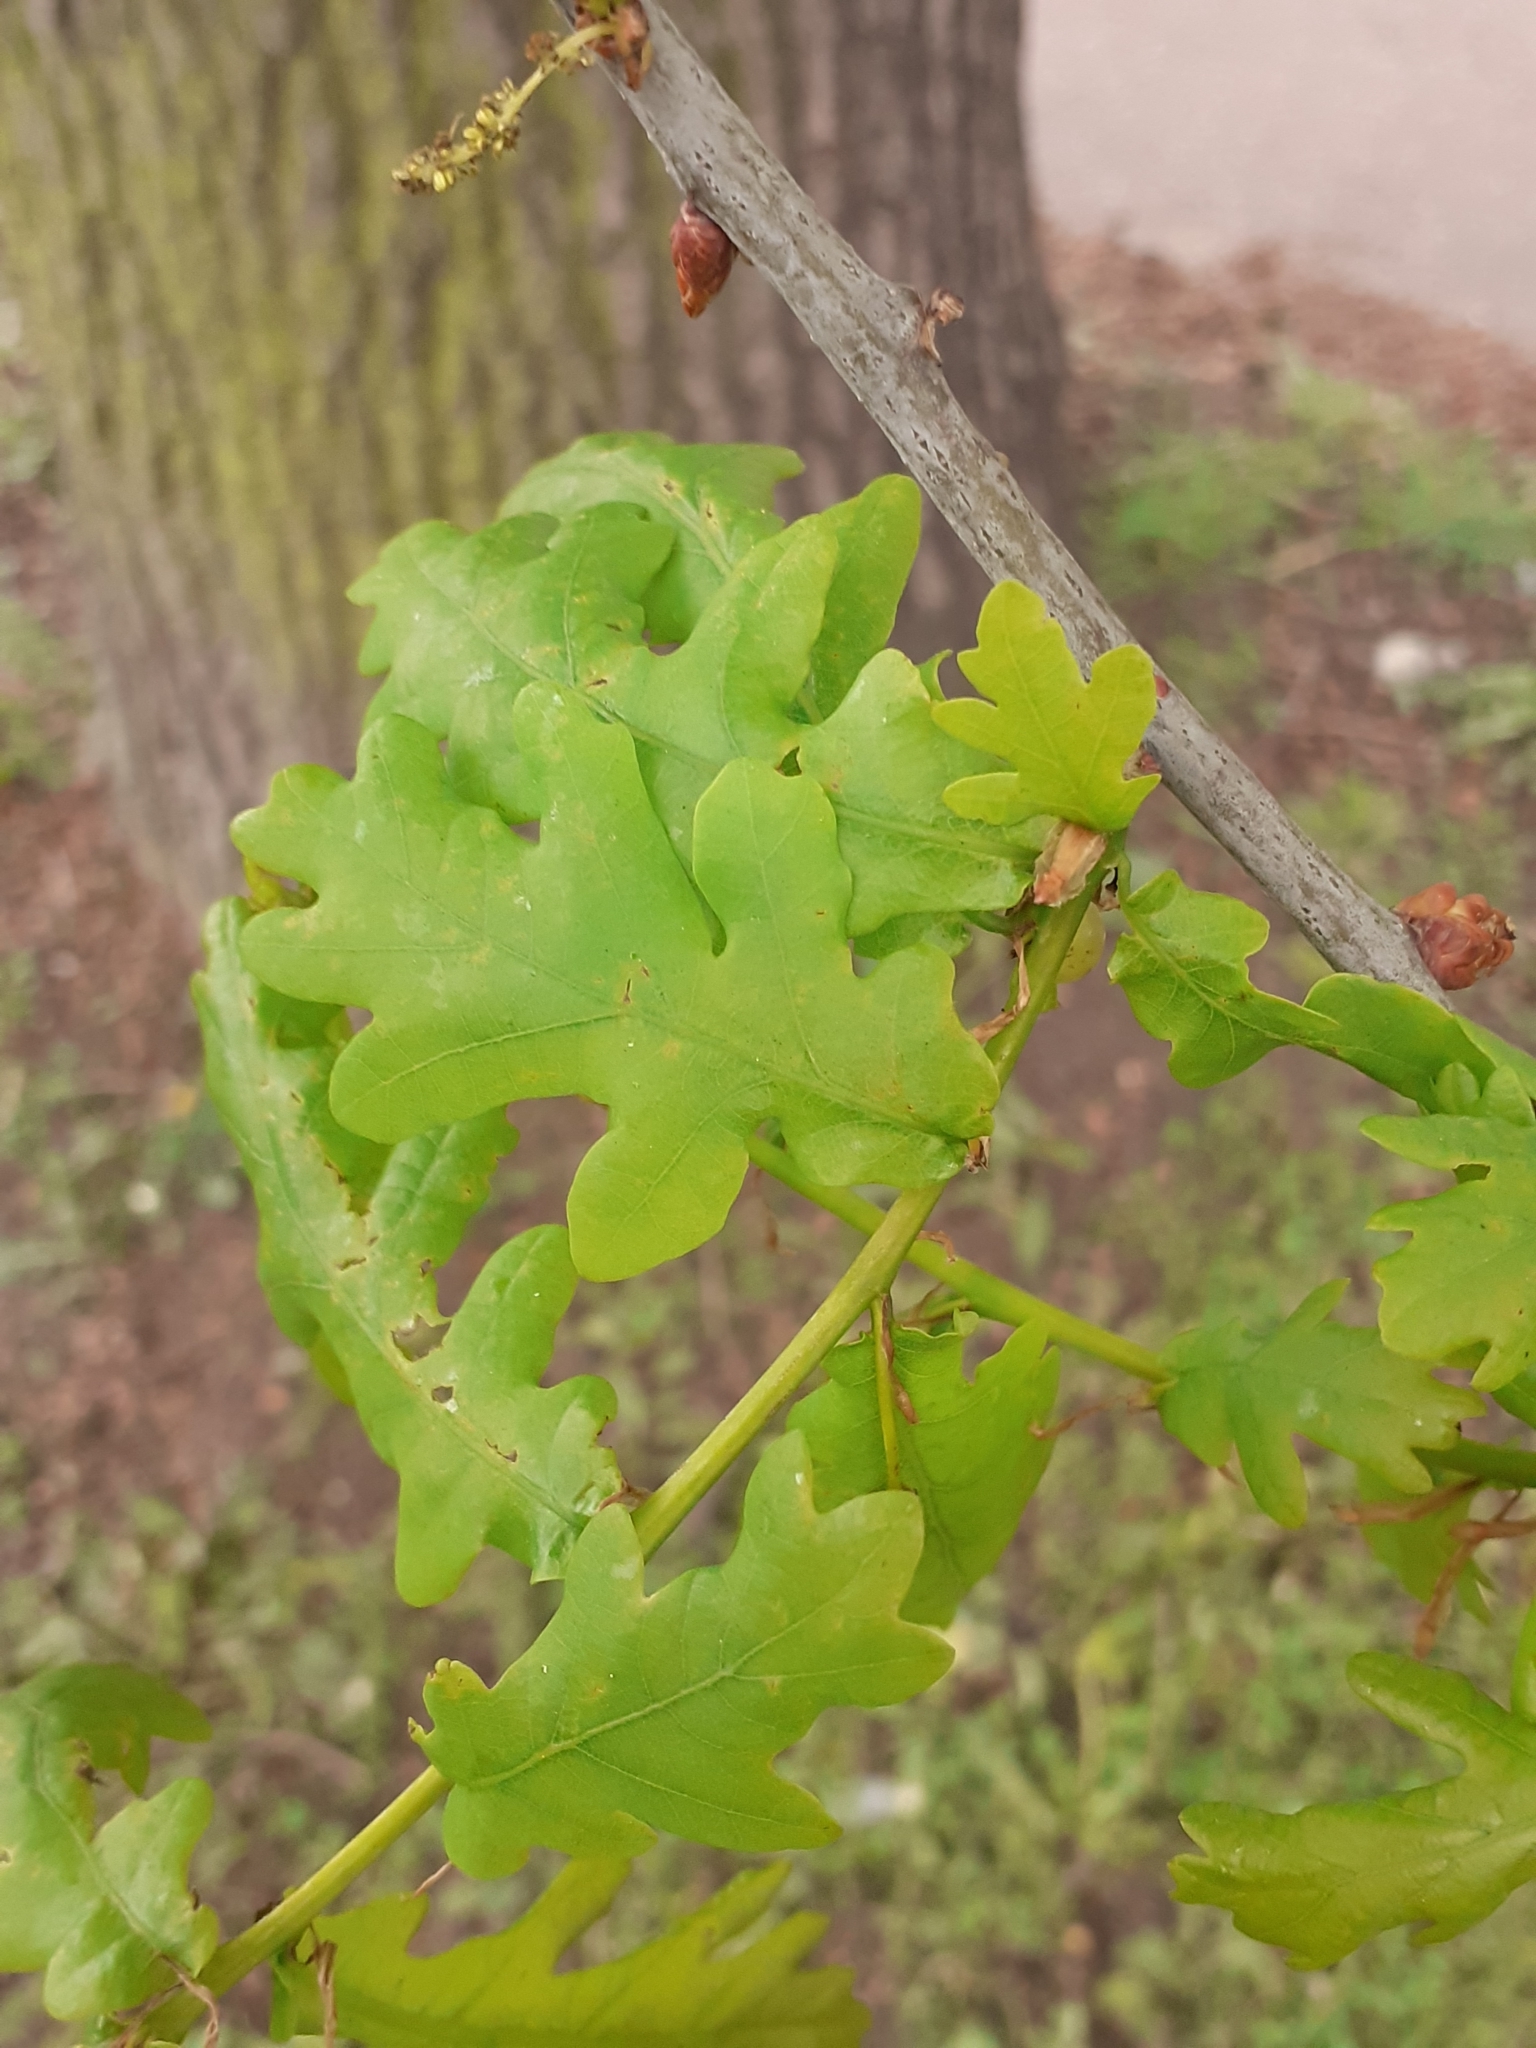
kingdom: Plantae
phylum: Tracheophyta
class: Magnoliopsida
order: Fagales
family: Fagaceae
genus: Quercus
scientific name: Quercus robur
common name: Pedunculate oak
